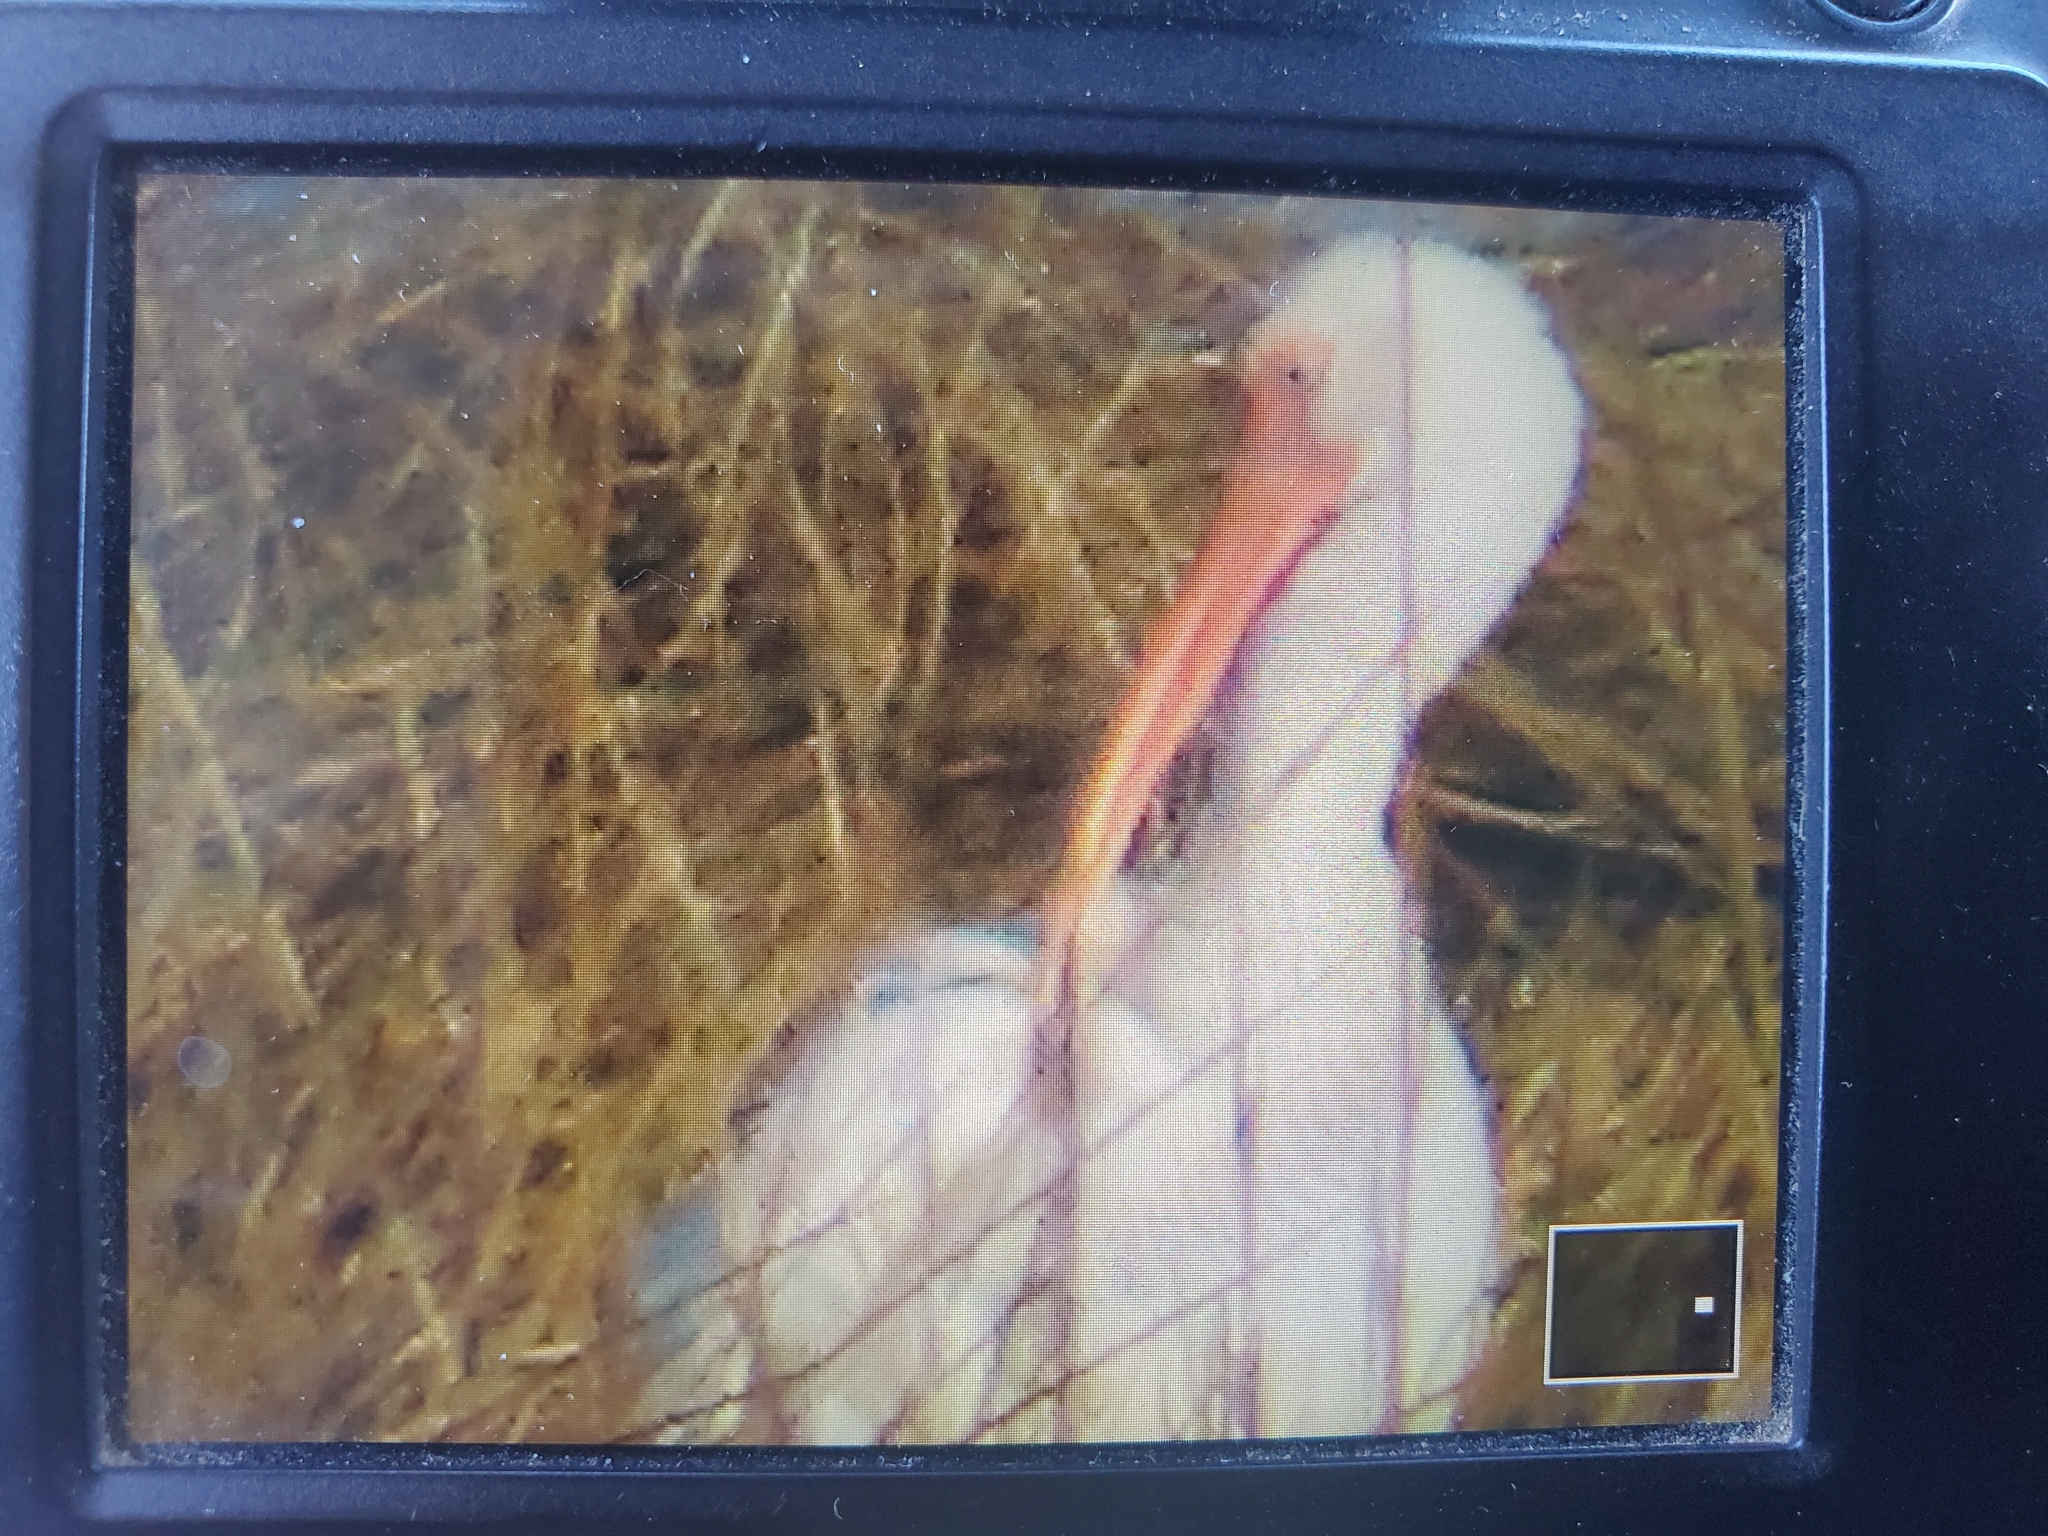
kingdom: Animalia
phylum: Chordata
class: Aves
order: Pelecaniformes
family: Threskiornithidae
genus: Eudocimus
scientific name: Eudocimus albus
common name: White ibis
